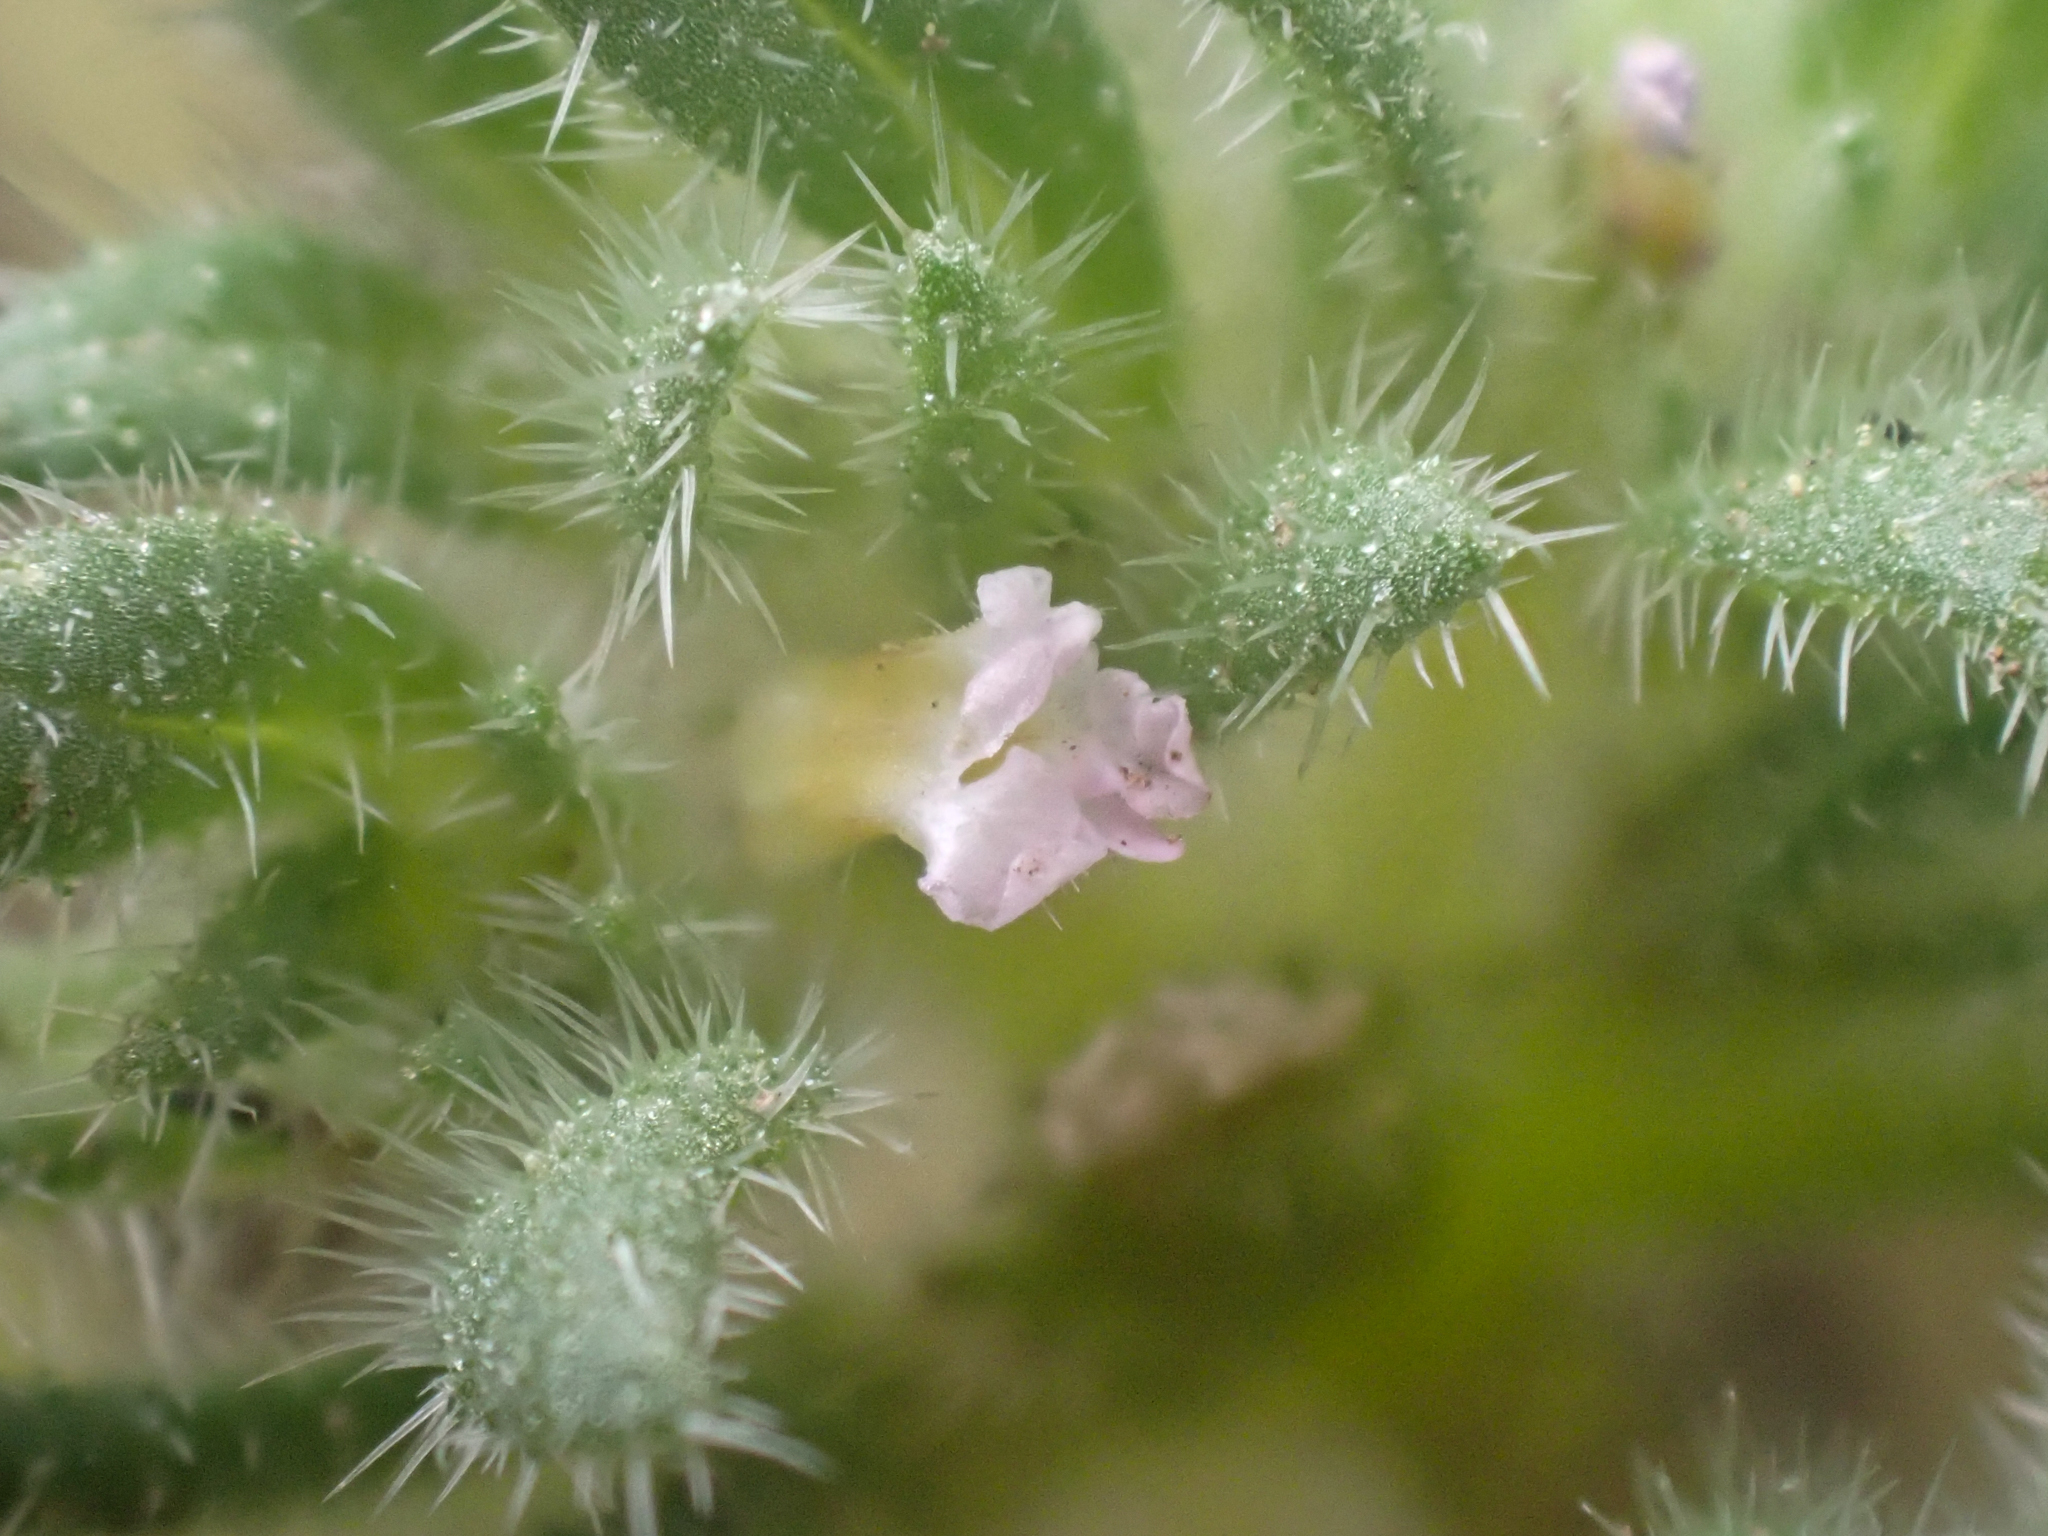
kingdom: Plantae
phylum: Tracheophyta
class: Magnoliopsida
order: Boraginales
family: Namaceae
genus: Nama
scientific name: Nama densa
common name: Leafy nama
